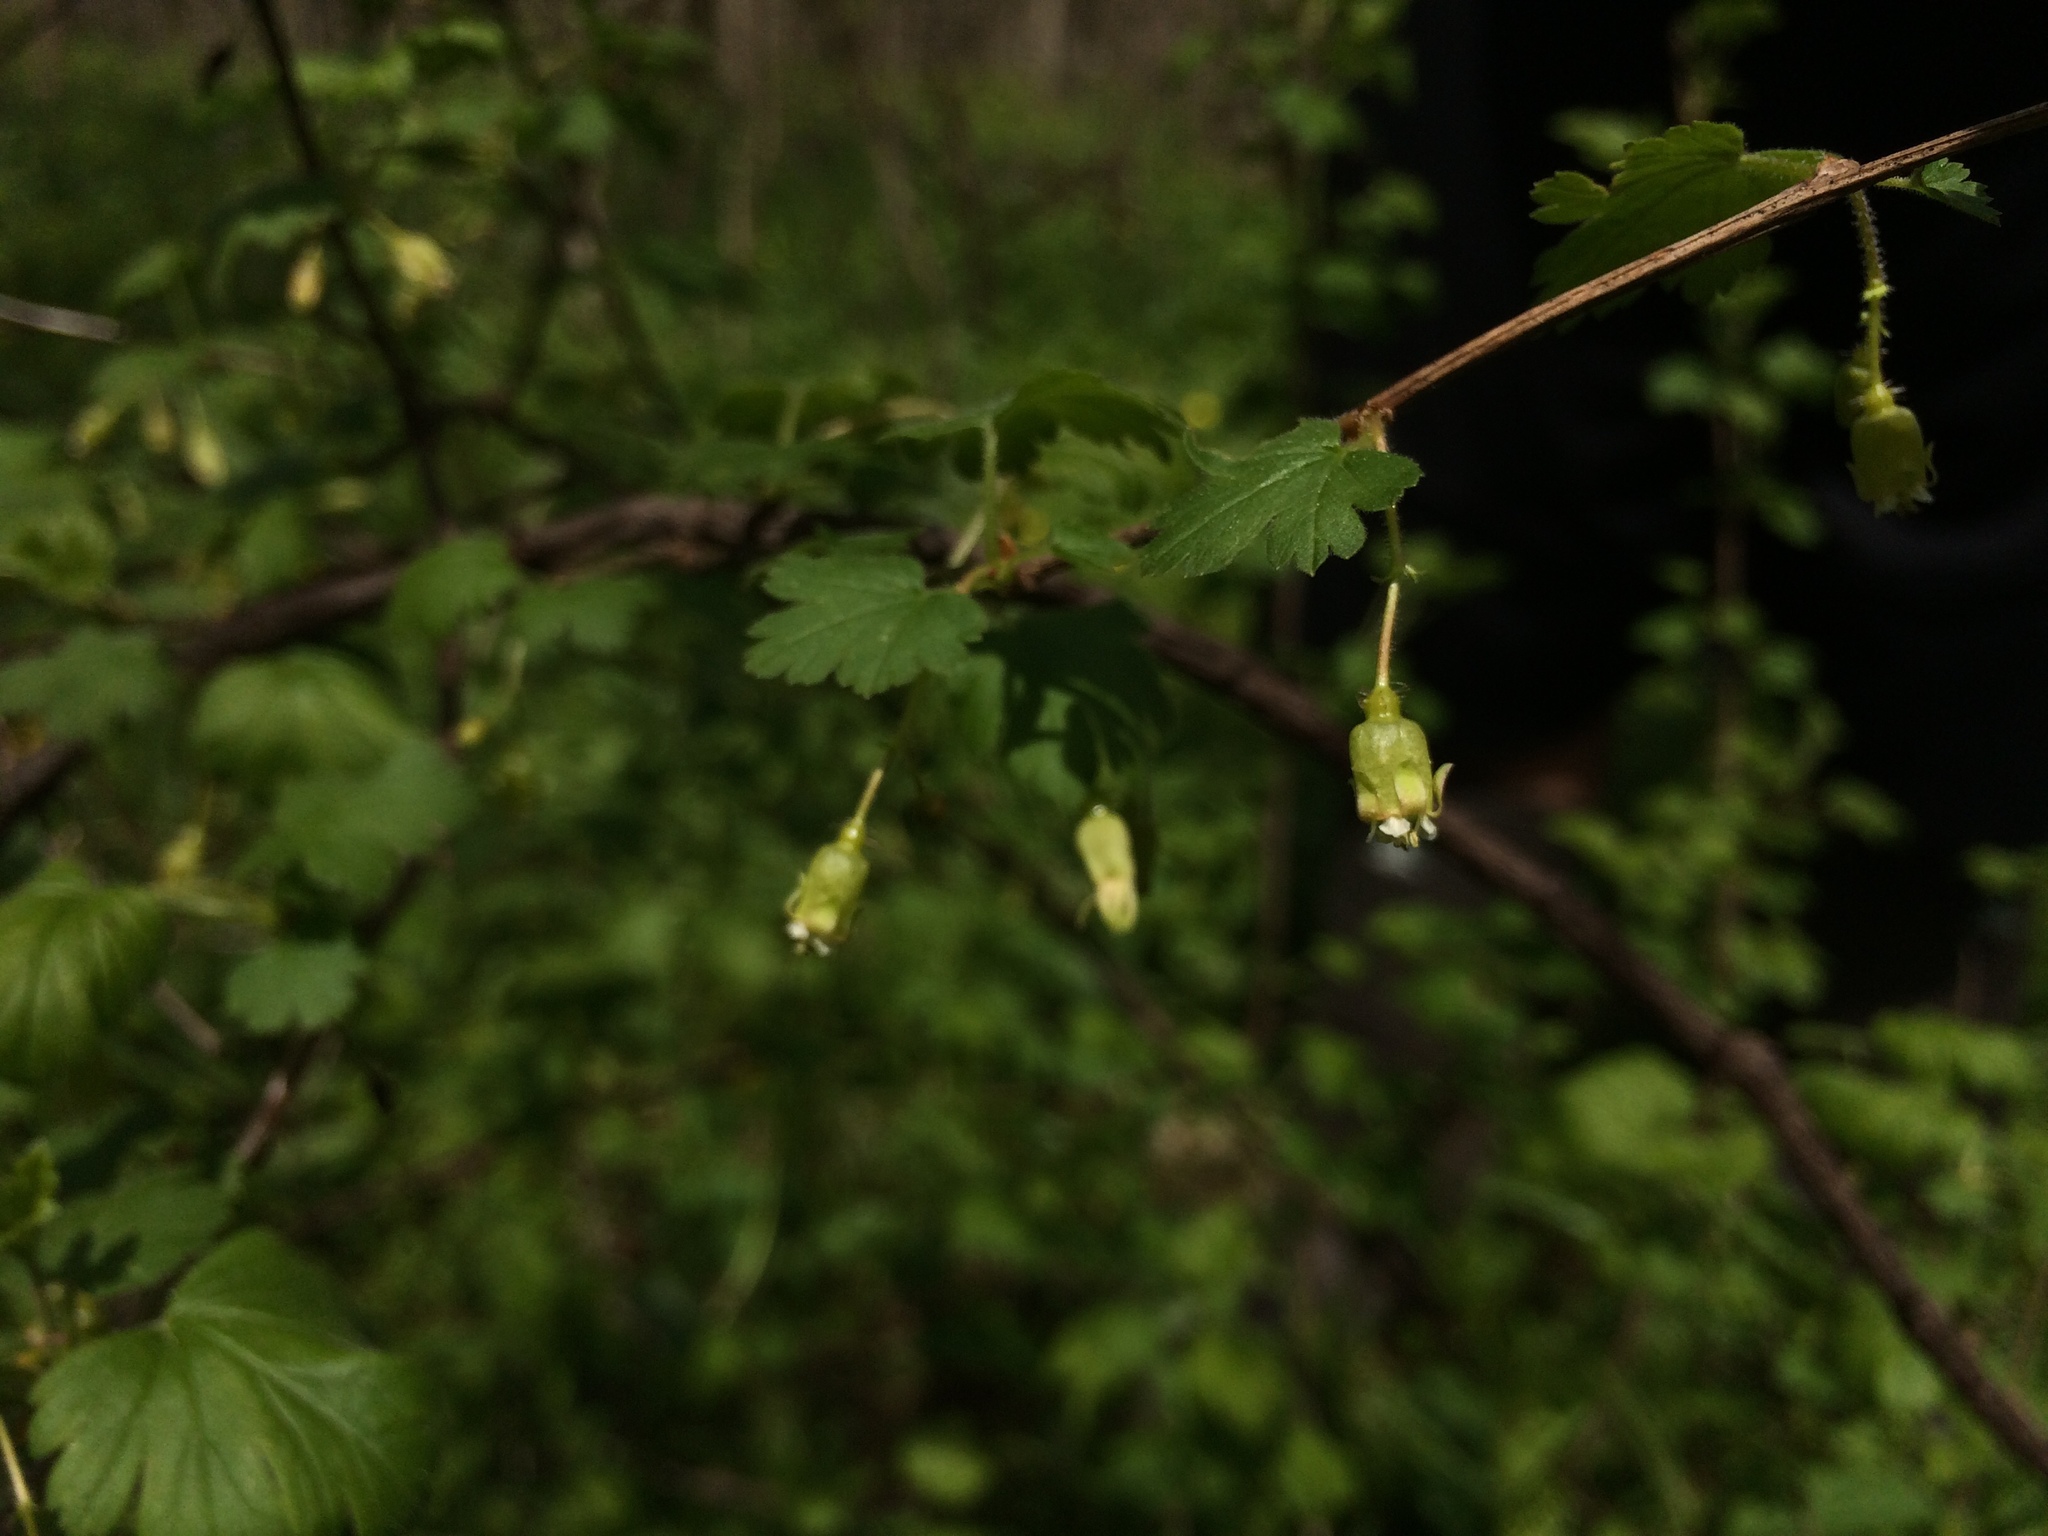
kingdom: Plantae
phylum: Tracheophyta
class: Magnoliopsida
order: Saxifragales
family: Grossulariaceae
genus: Ribes
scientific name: Ribes cynosbati
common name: American gooseberry
